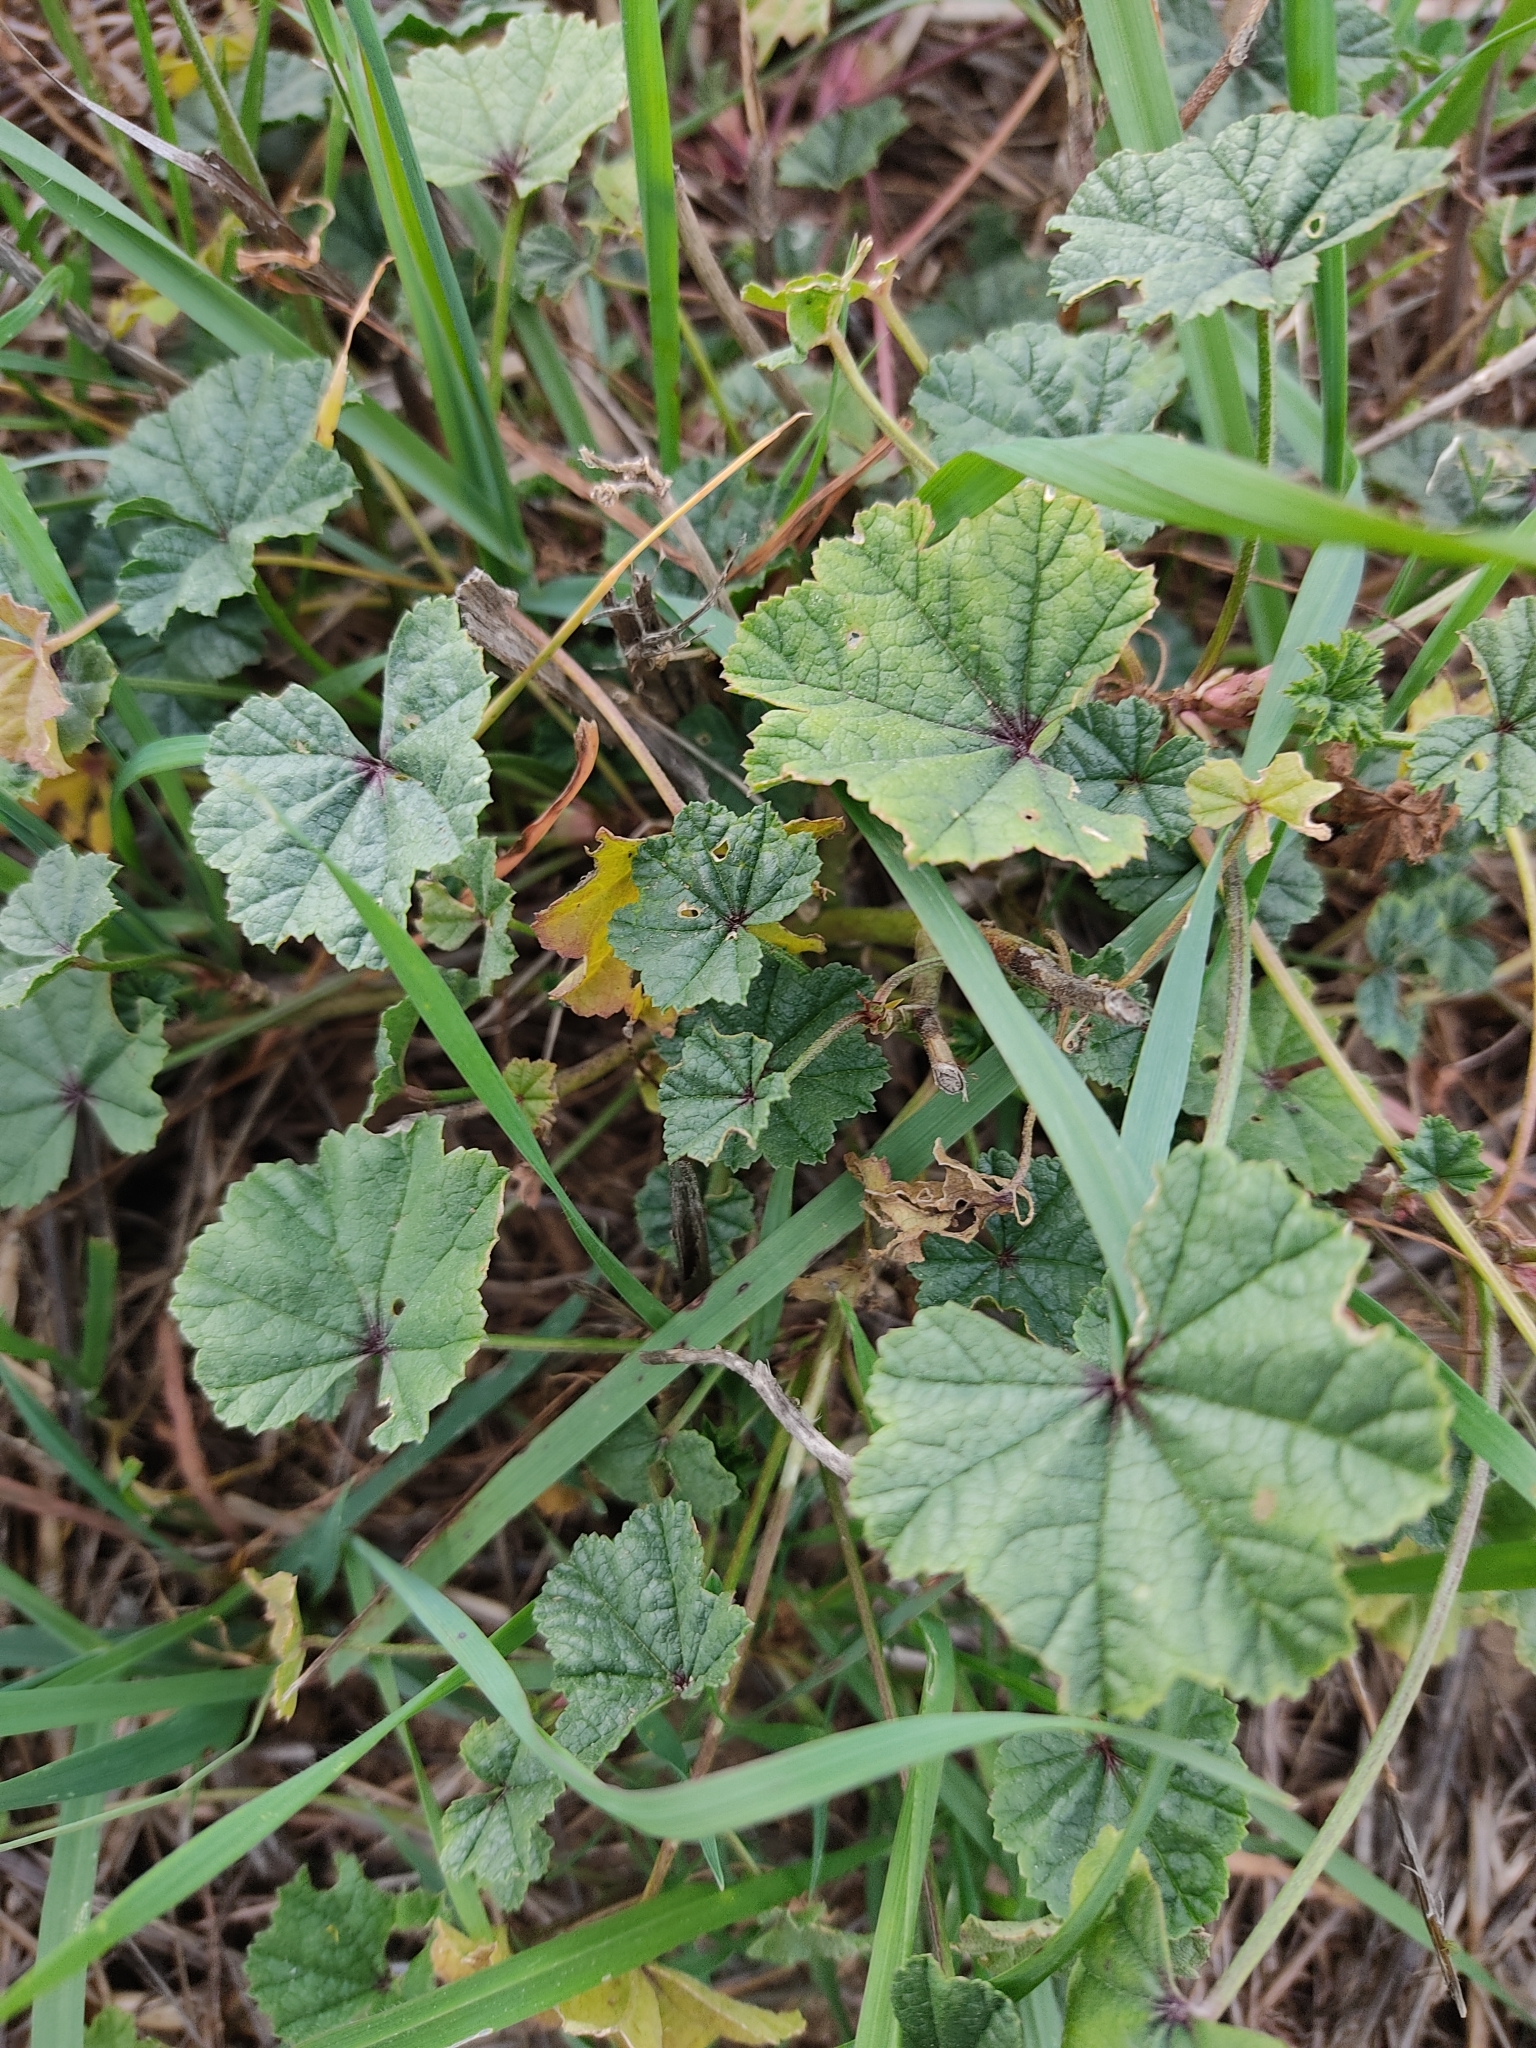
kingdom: Plantae
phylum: Tracheophyta
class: Magnoliopsida
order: Malvales
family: Malvaceae
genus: Malva
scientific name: Malva sylvestris
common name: Common mallow
